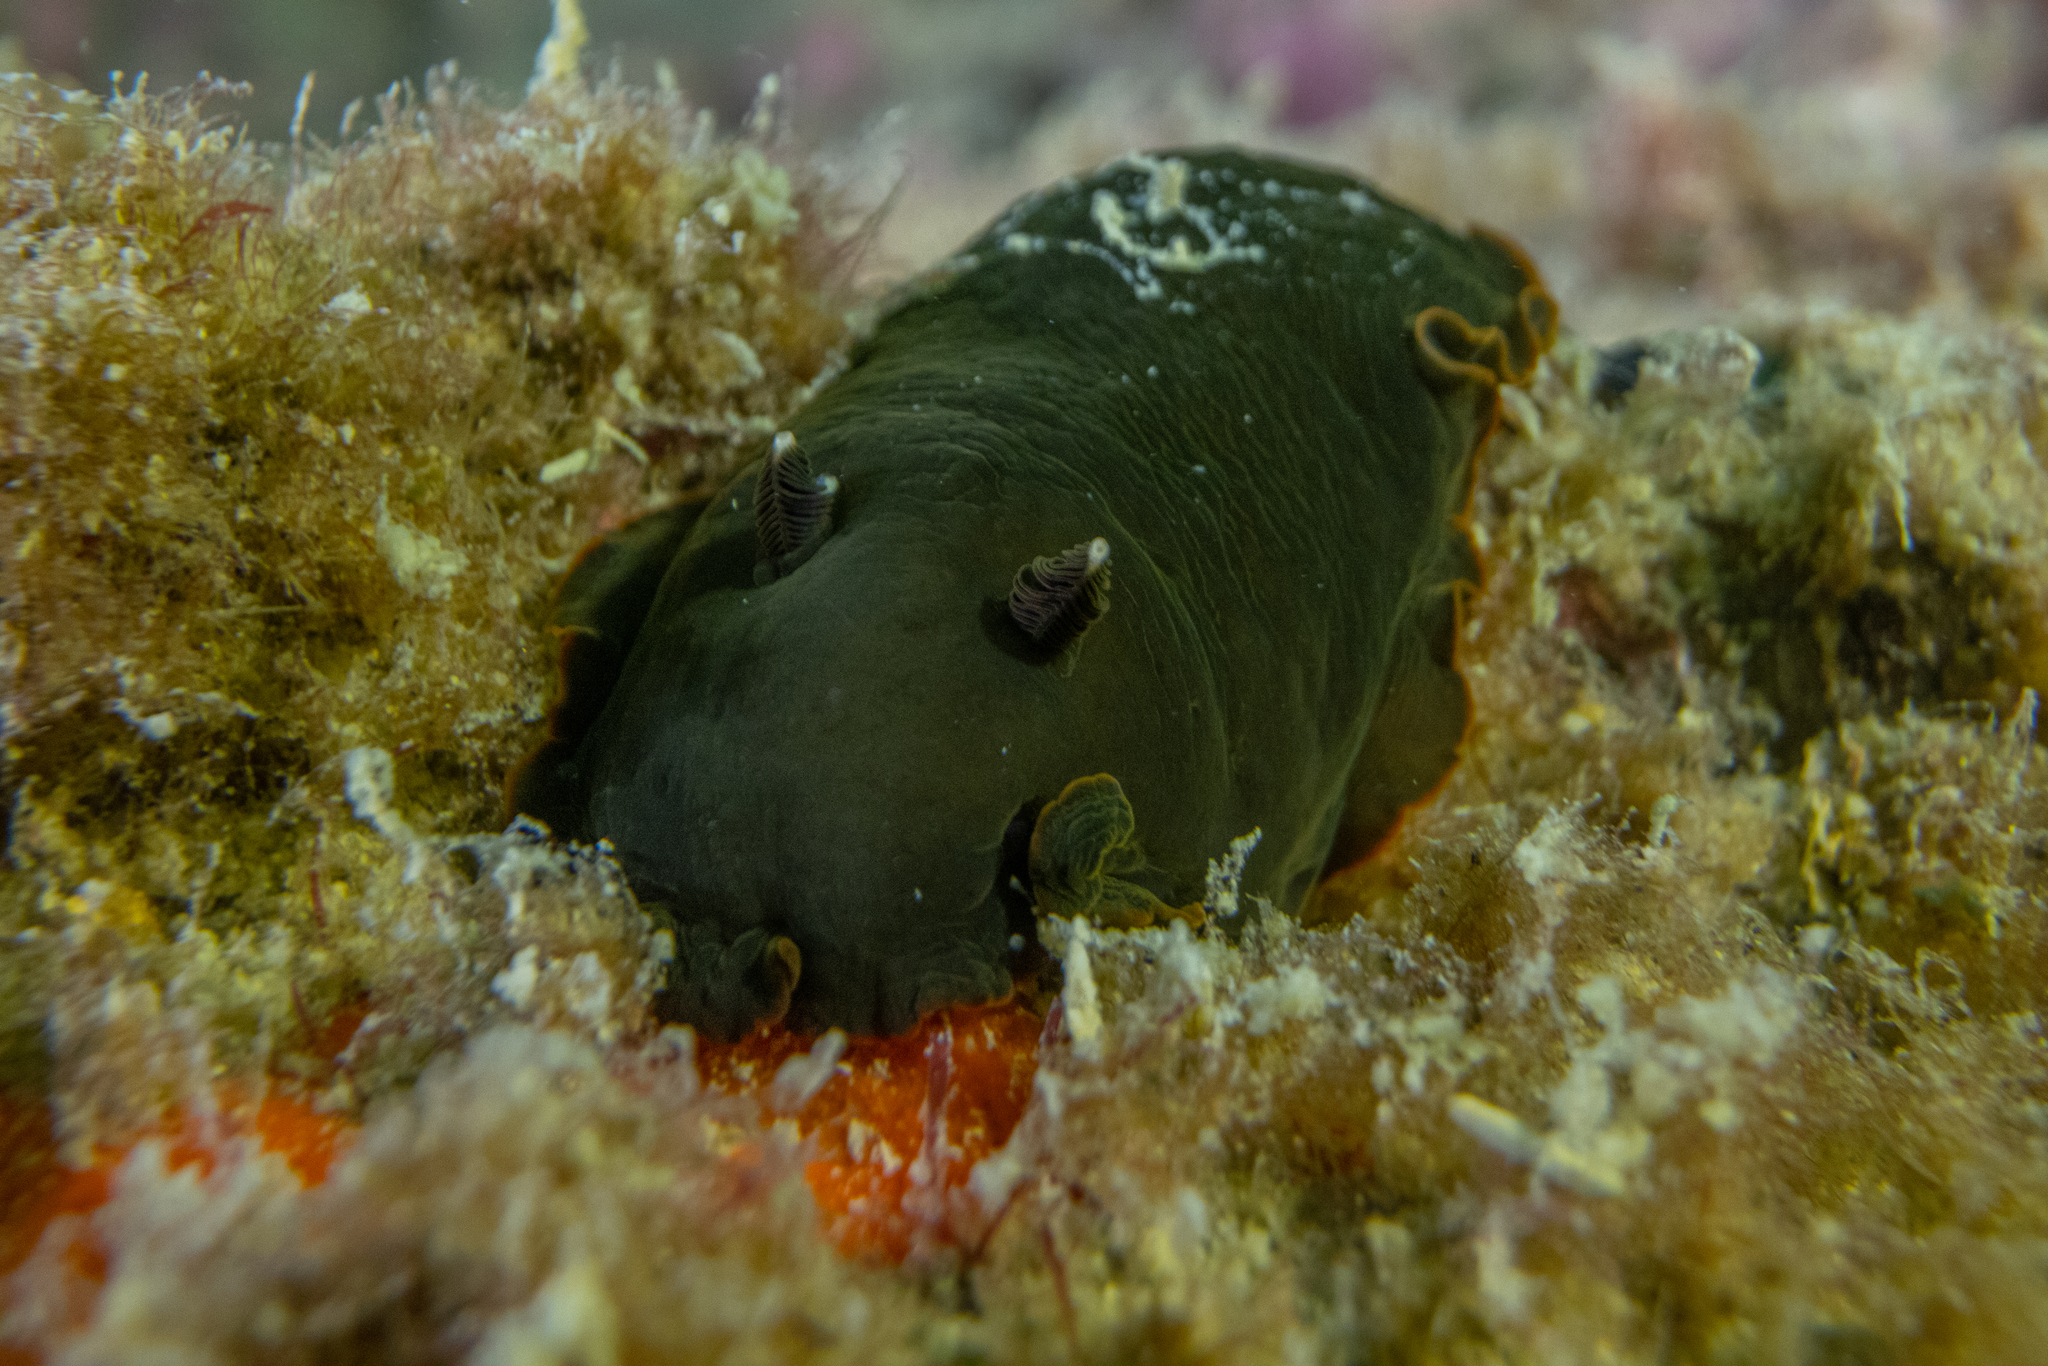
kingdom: Animalia
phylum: Mollusca
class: Gastropoda
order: Nudibranchia
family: Dendrodorididae
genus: Dendrodoris
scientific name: Dendrodoris nigra
